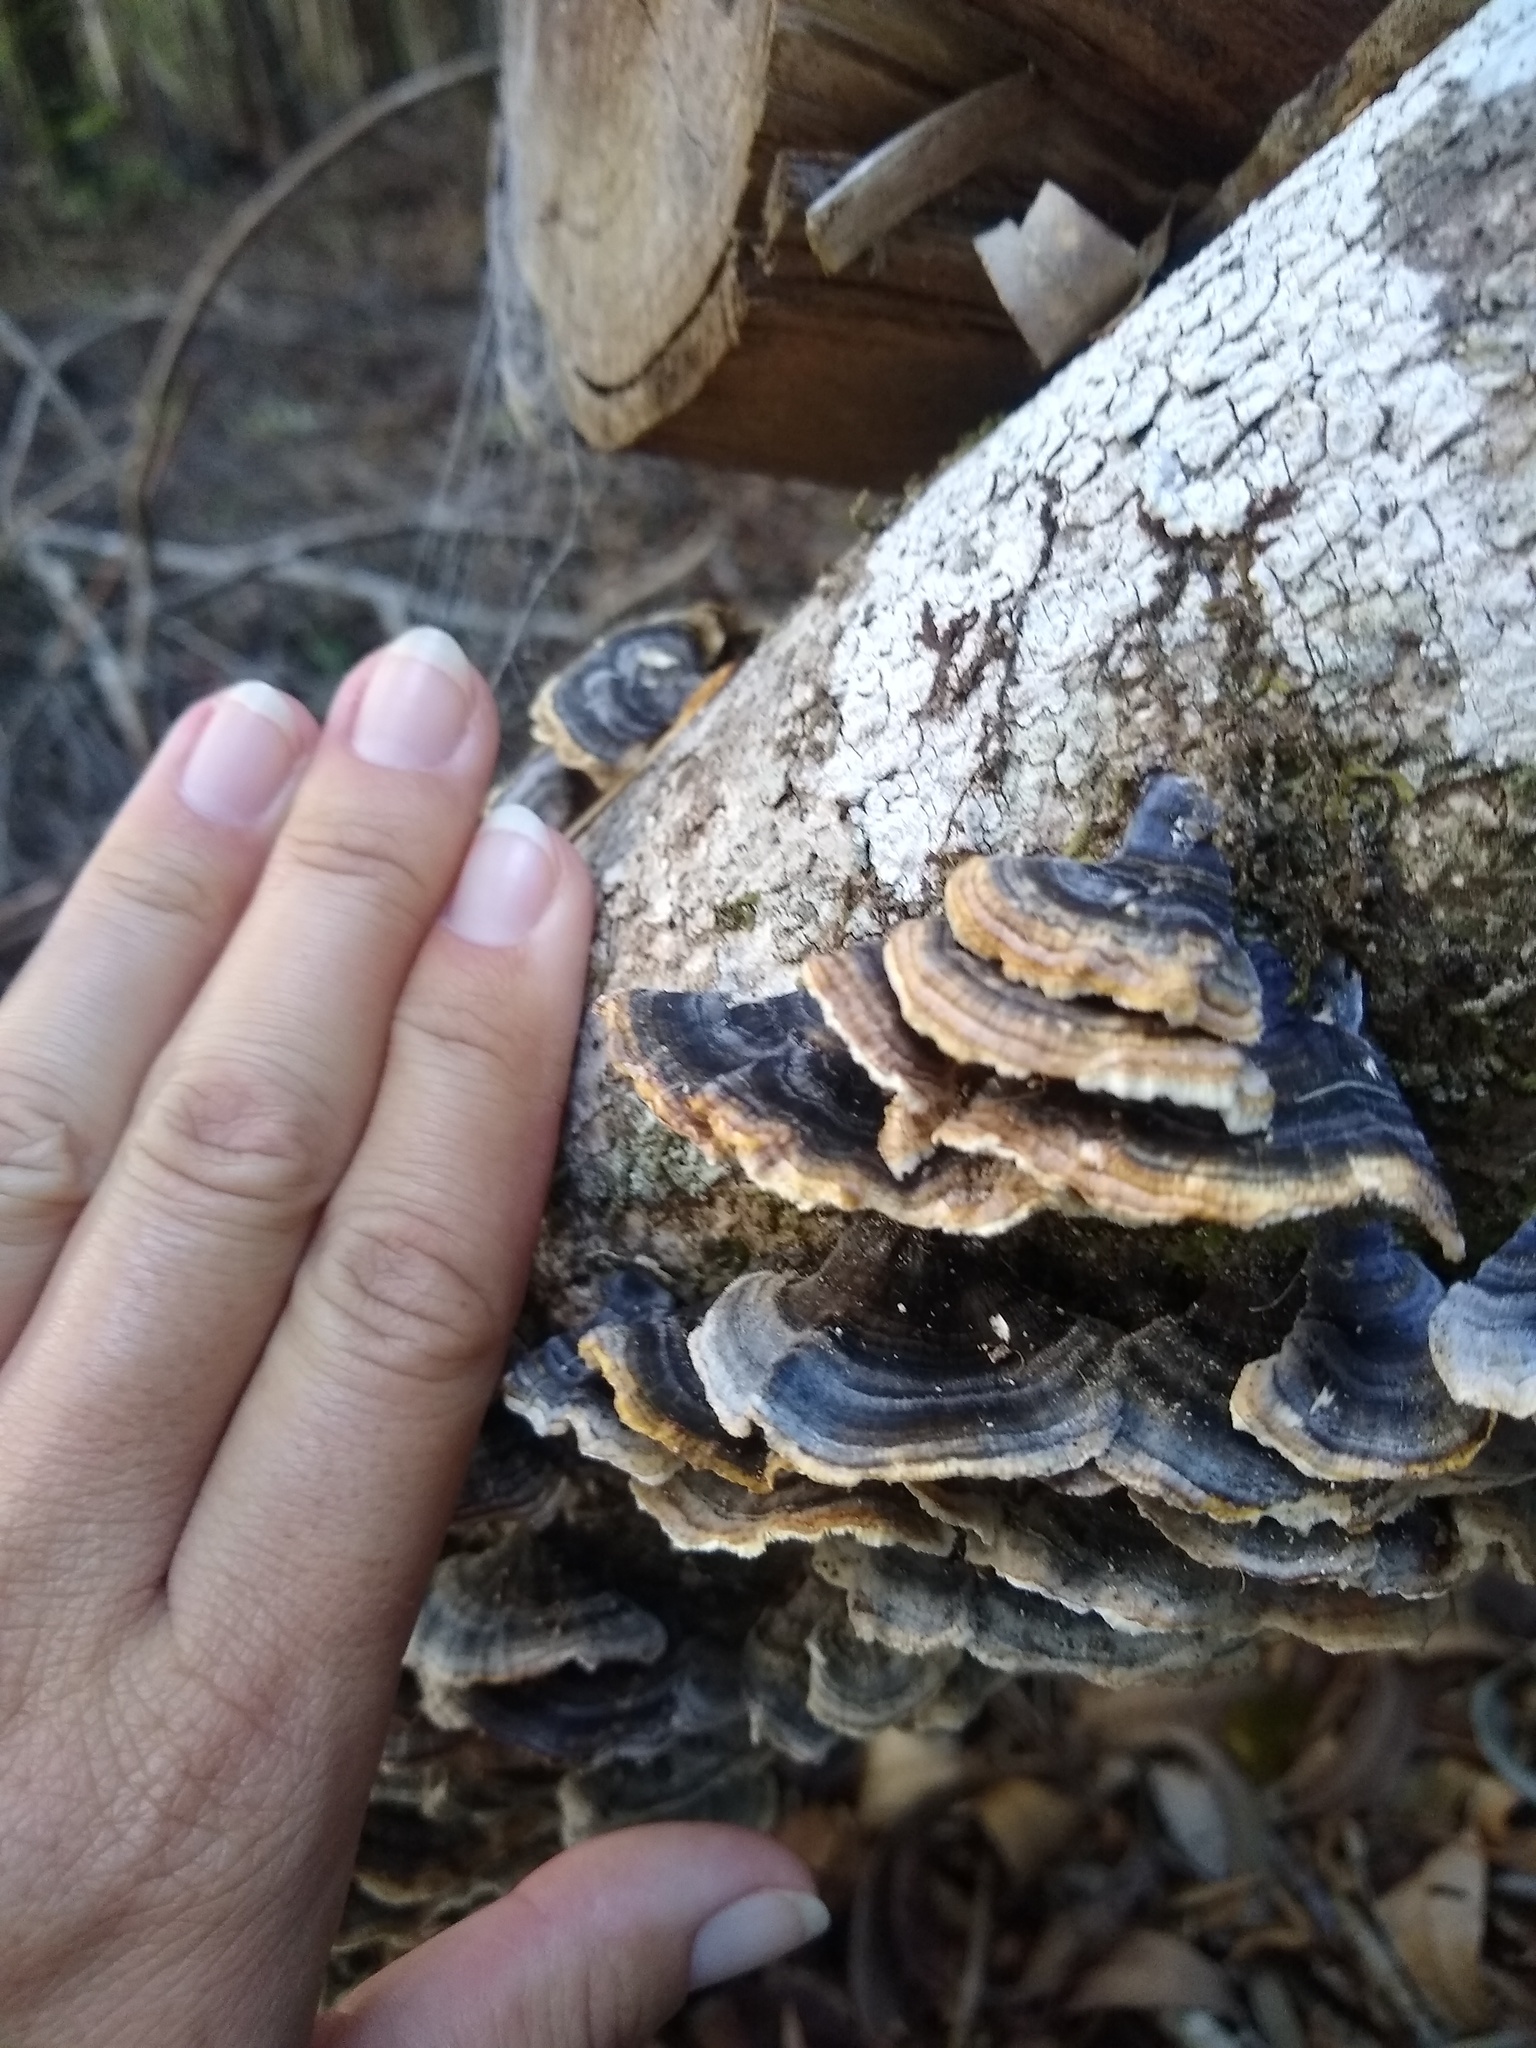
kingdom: Fungi
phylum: Basidiomycota
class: Agaricomycetes
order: Polyporales
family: Polyporaceae
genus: Trametes
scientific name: Trametes versicolor
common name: Turkeytail
